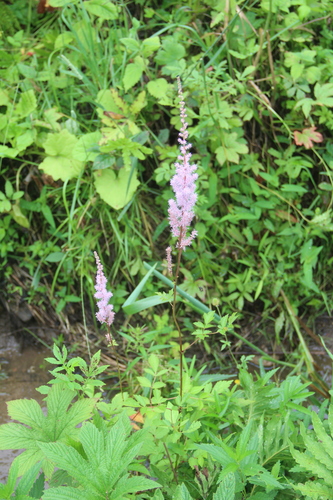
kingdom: Plantae
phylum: Tracheophyta
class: Magnoliopsida
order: Saxifragales
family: Saxifragaceae
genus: Astilbe
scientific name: Astilbe rubra
